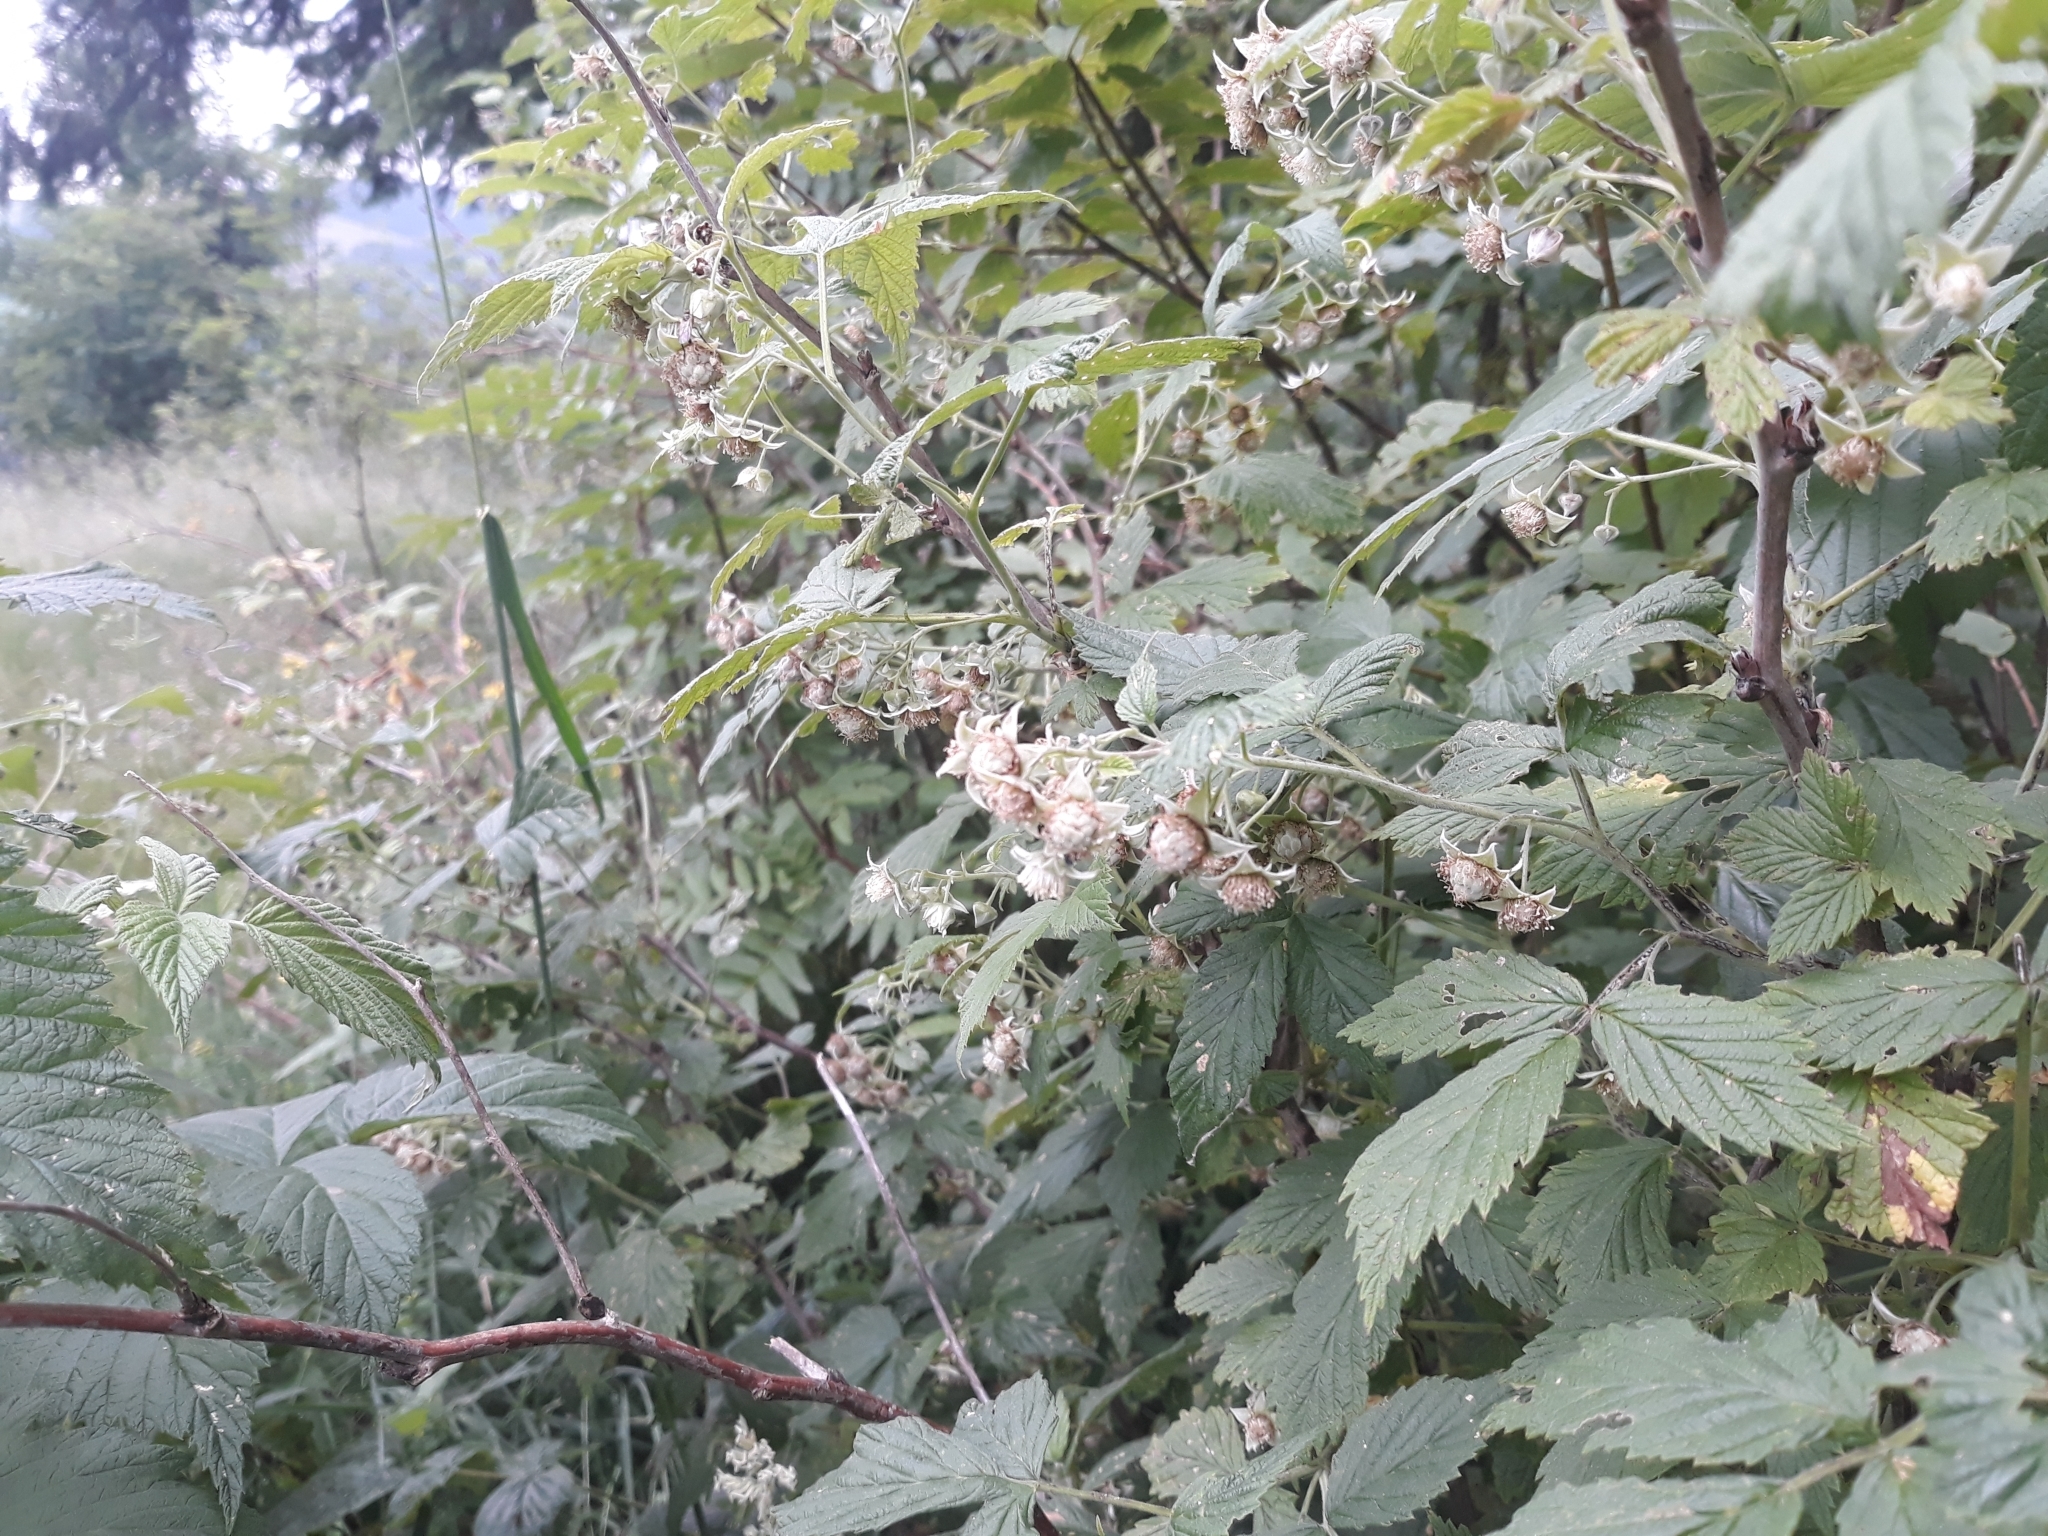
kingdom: Plantae
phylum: Tracheophyta
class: Magnoliopsida
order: Rosales
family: Rosaceae
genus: Rubus
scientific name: Rubus idaeus
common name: Raspberry
